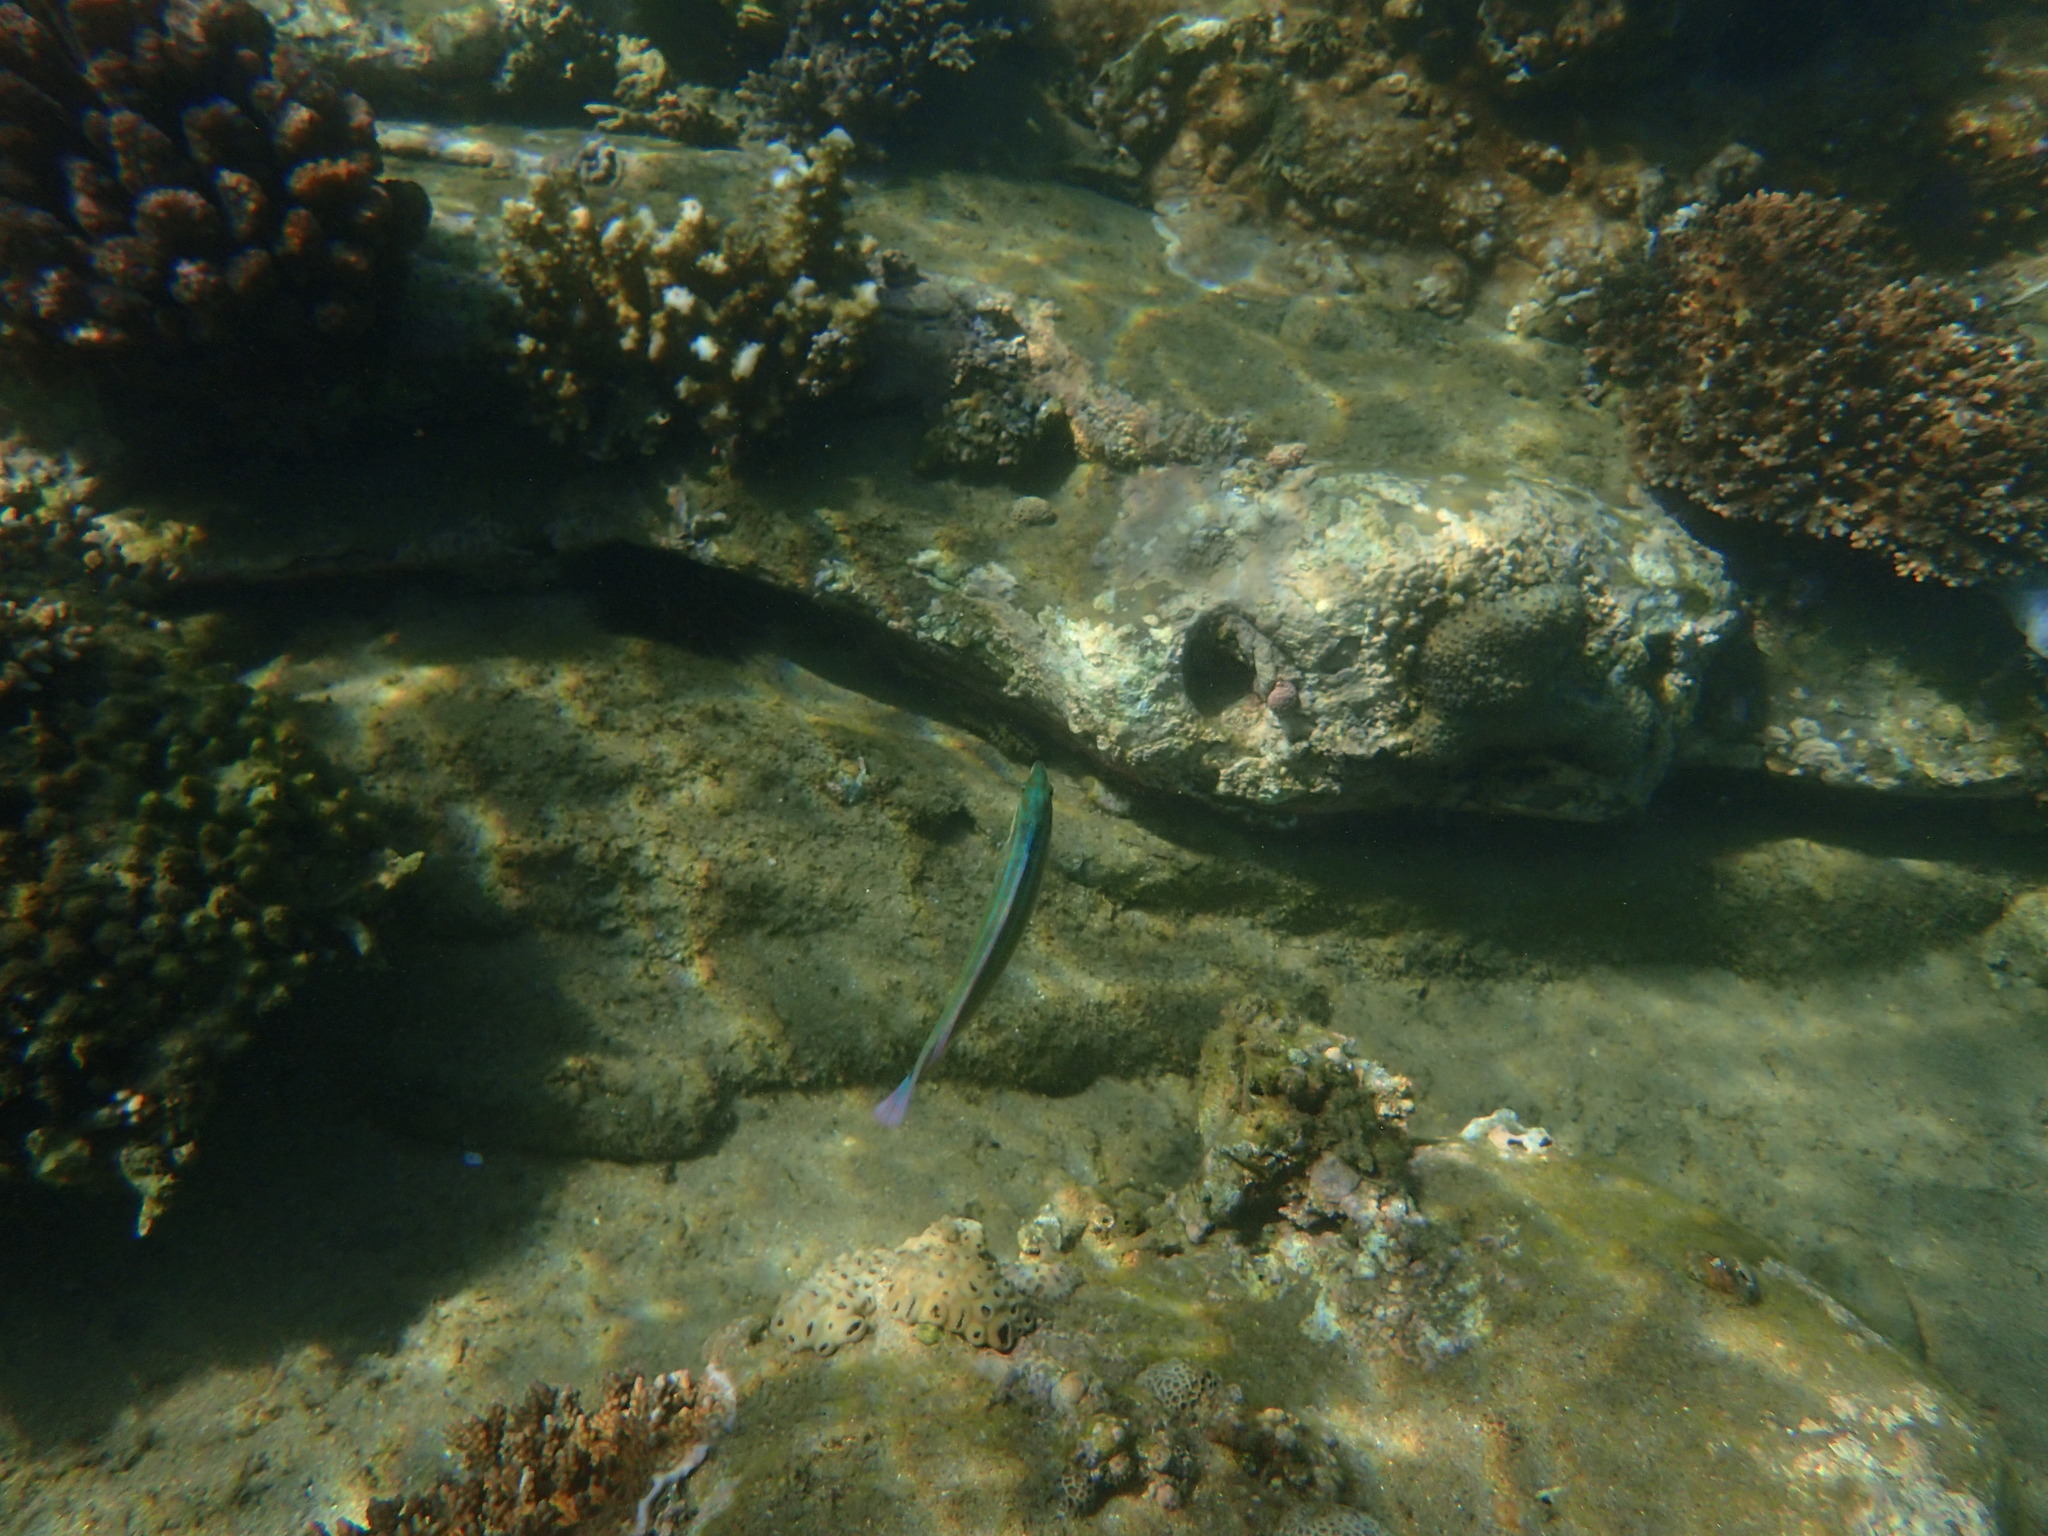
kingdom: Animalia
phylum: Chordata
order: Perciformes
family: Labridae
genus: Coris
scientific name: Coris caudimacula
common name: Spottail coris
